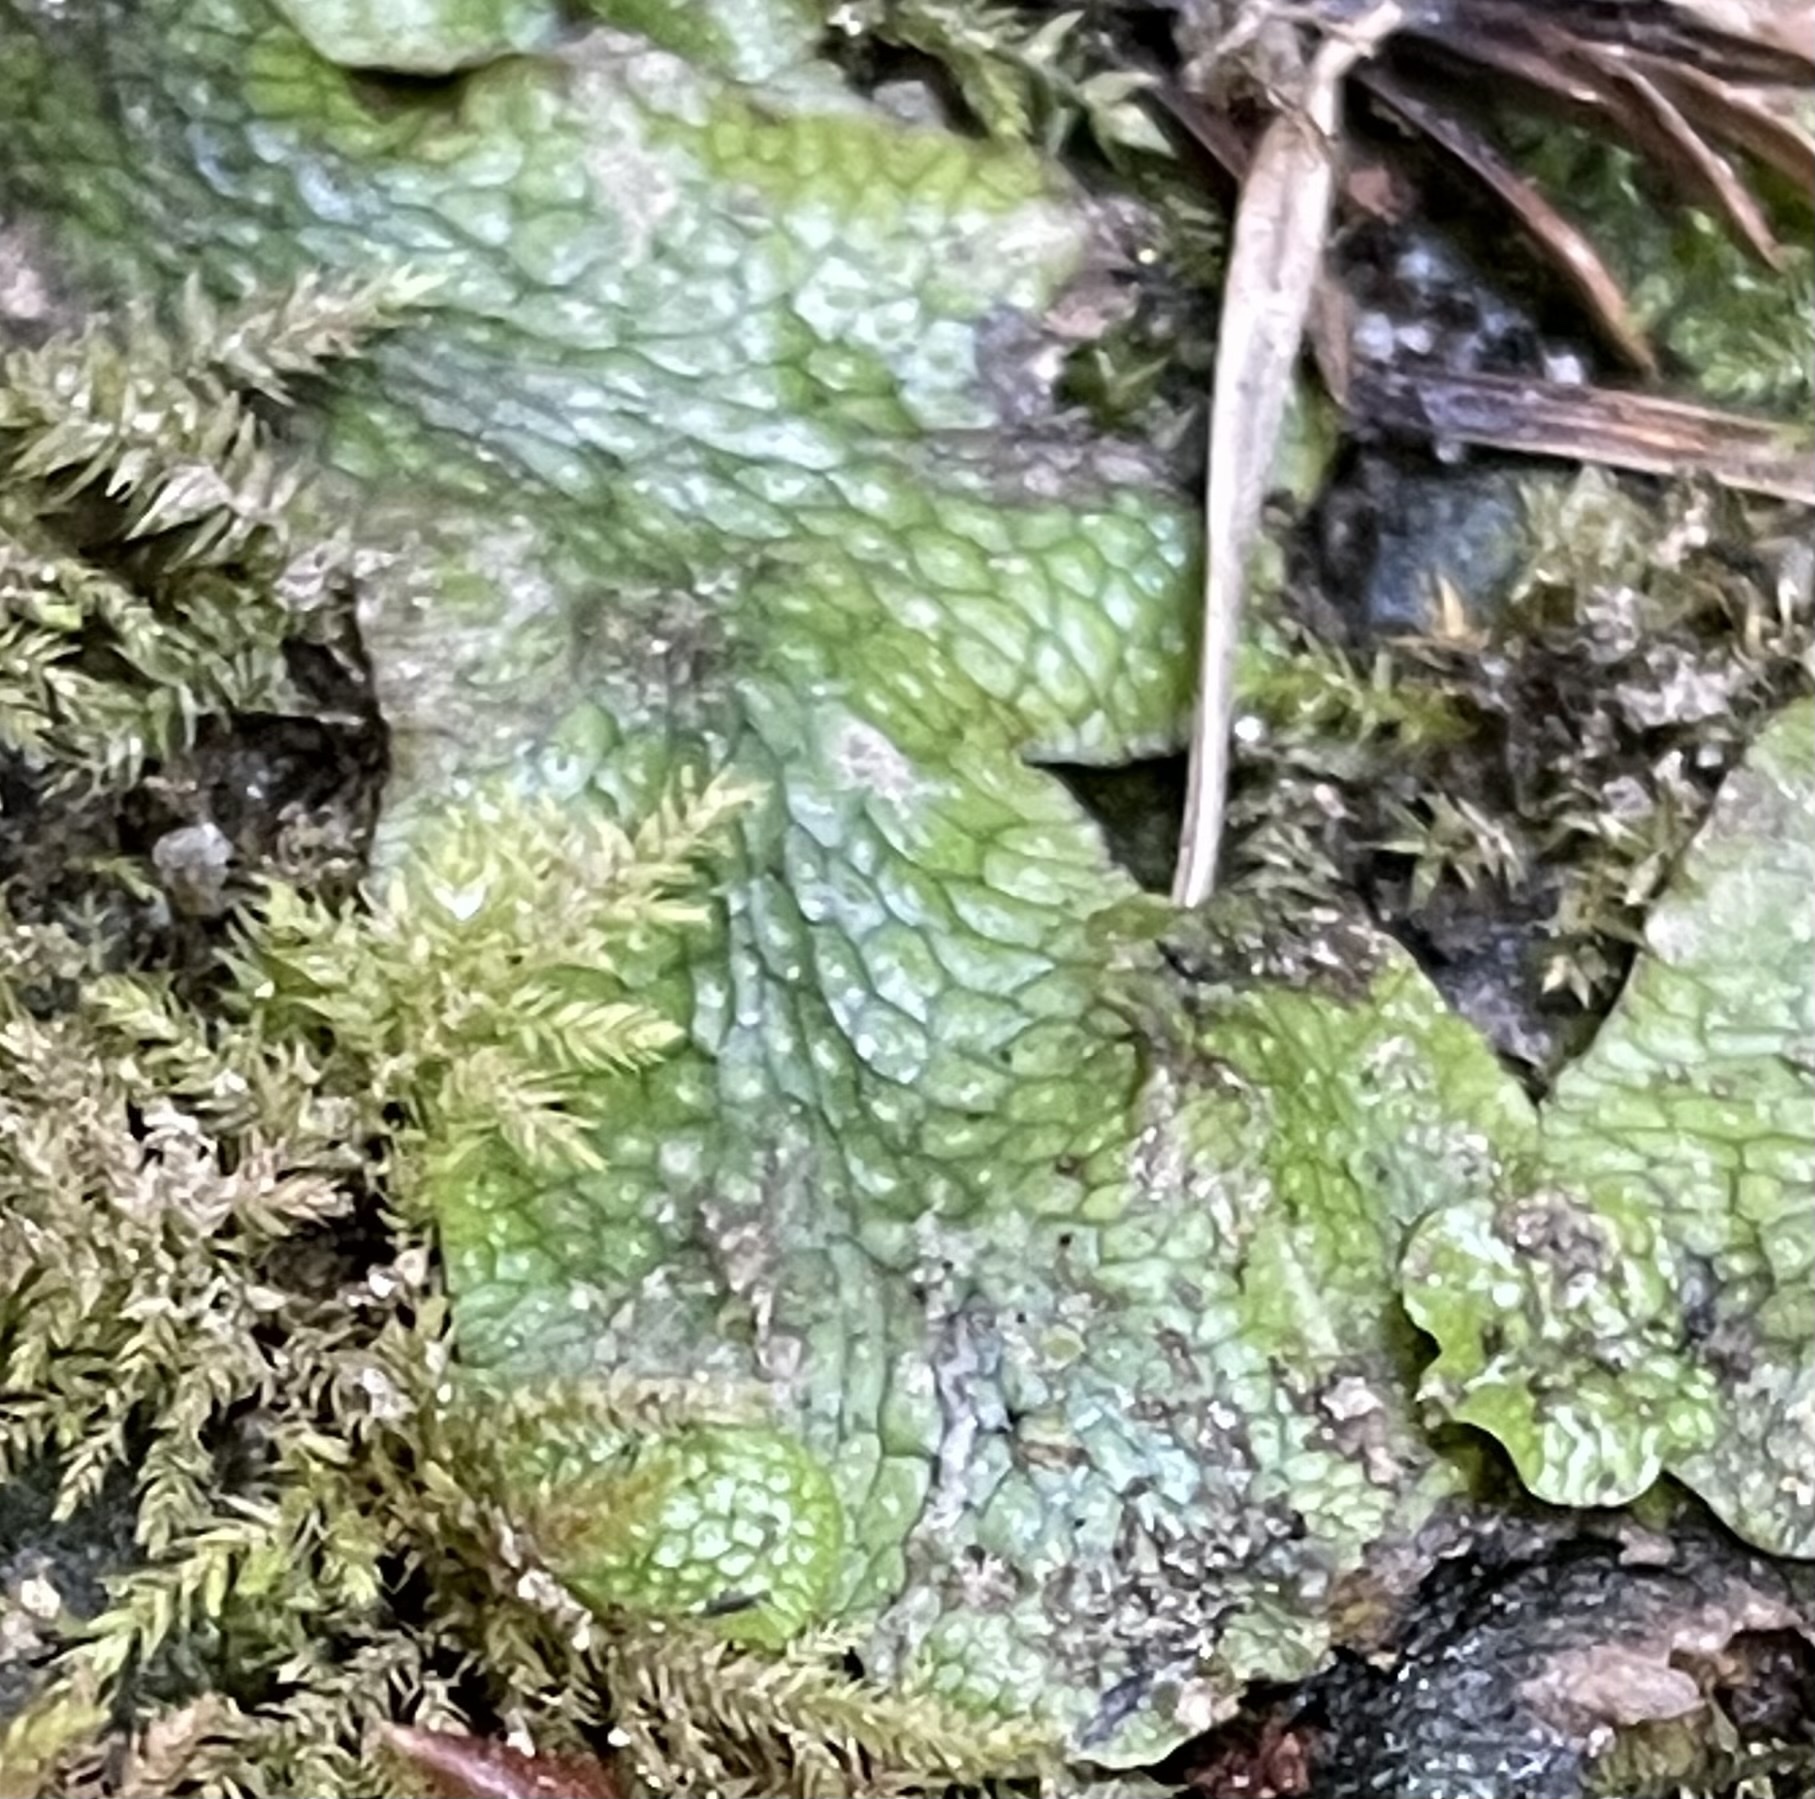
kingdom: Plantae
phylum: Marchantiophyta
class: Marchantiopsida
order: Marchantiales
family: Conocephalaceae
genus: Conocephalum
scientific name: Conocephalum salebrosum
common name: Cat-tongue liverwort
